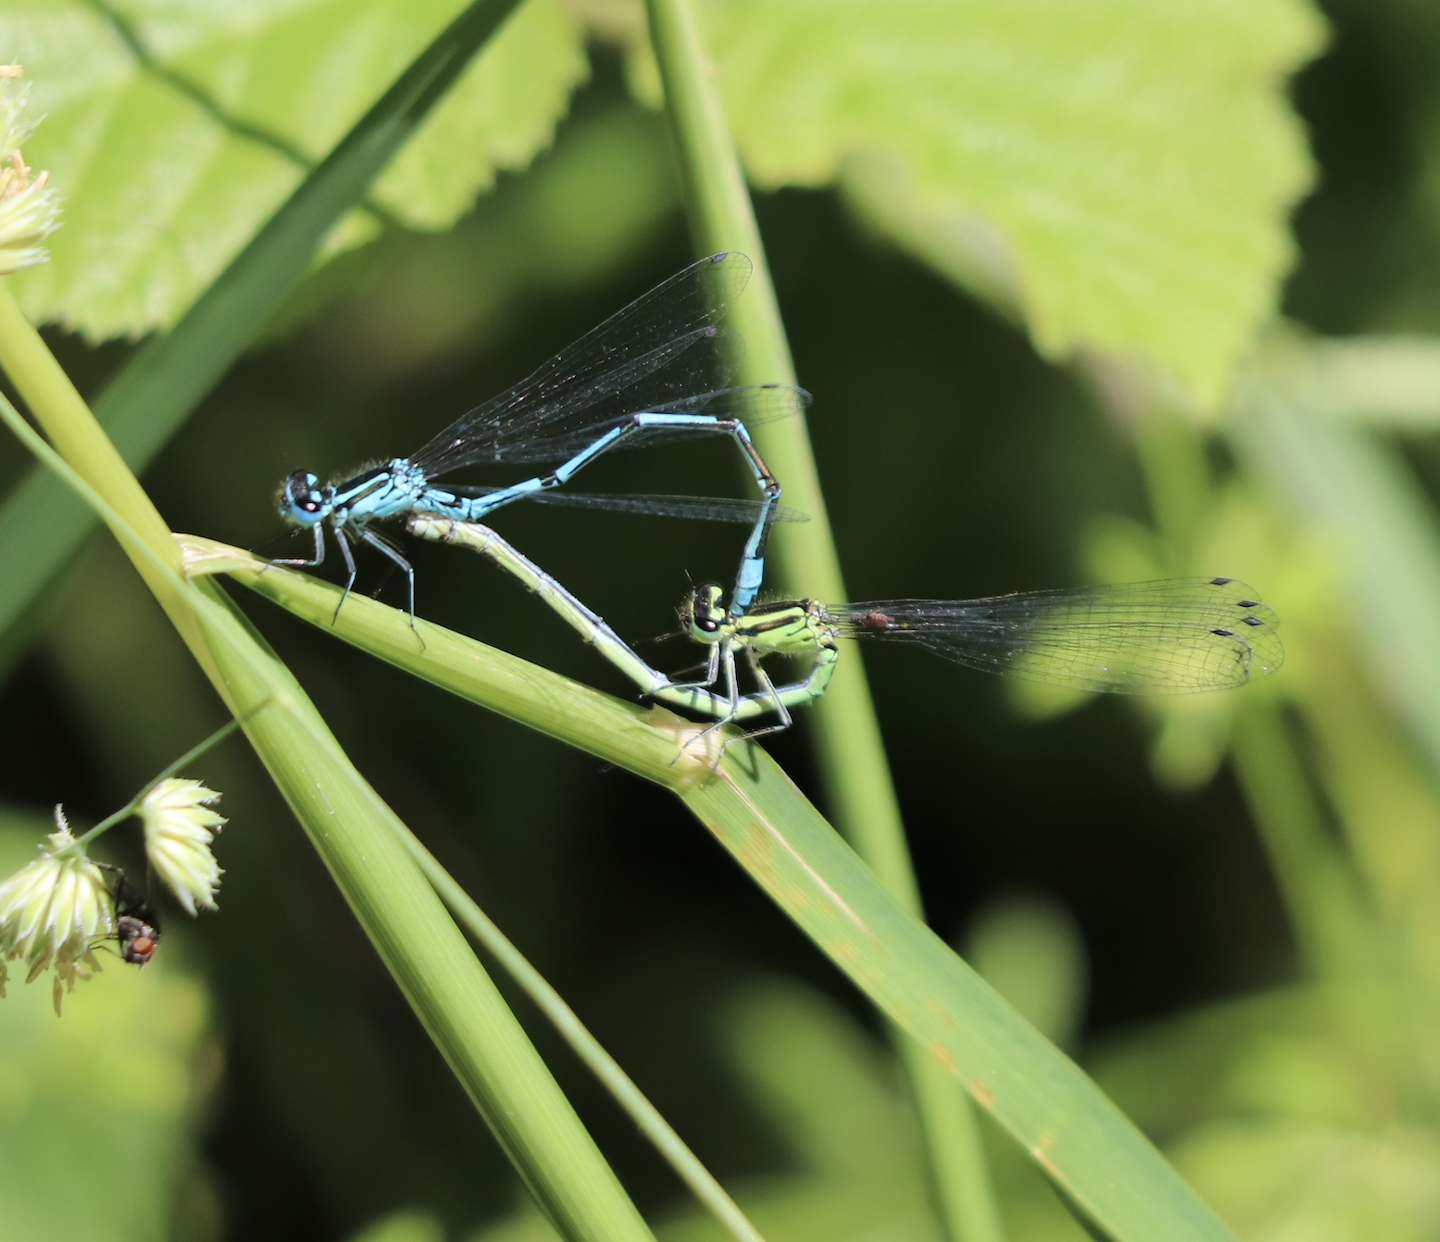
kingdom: Animalia
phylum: Arthropoda
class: Insecta
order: Odonata
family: Coenagrionidae
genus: Coenagrion
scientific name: Coenagrion puella
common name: Azure damselfly
